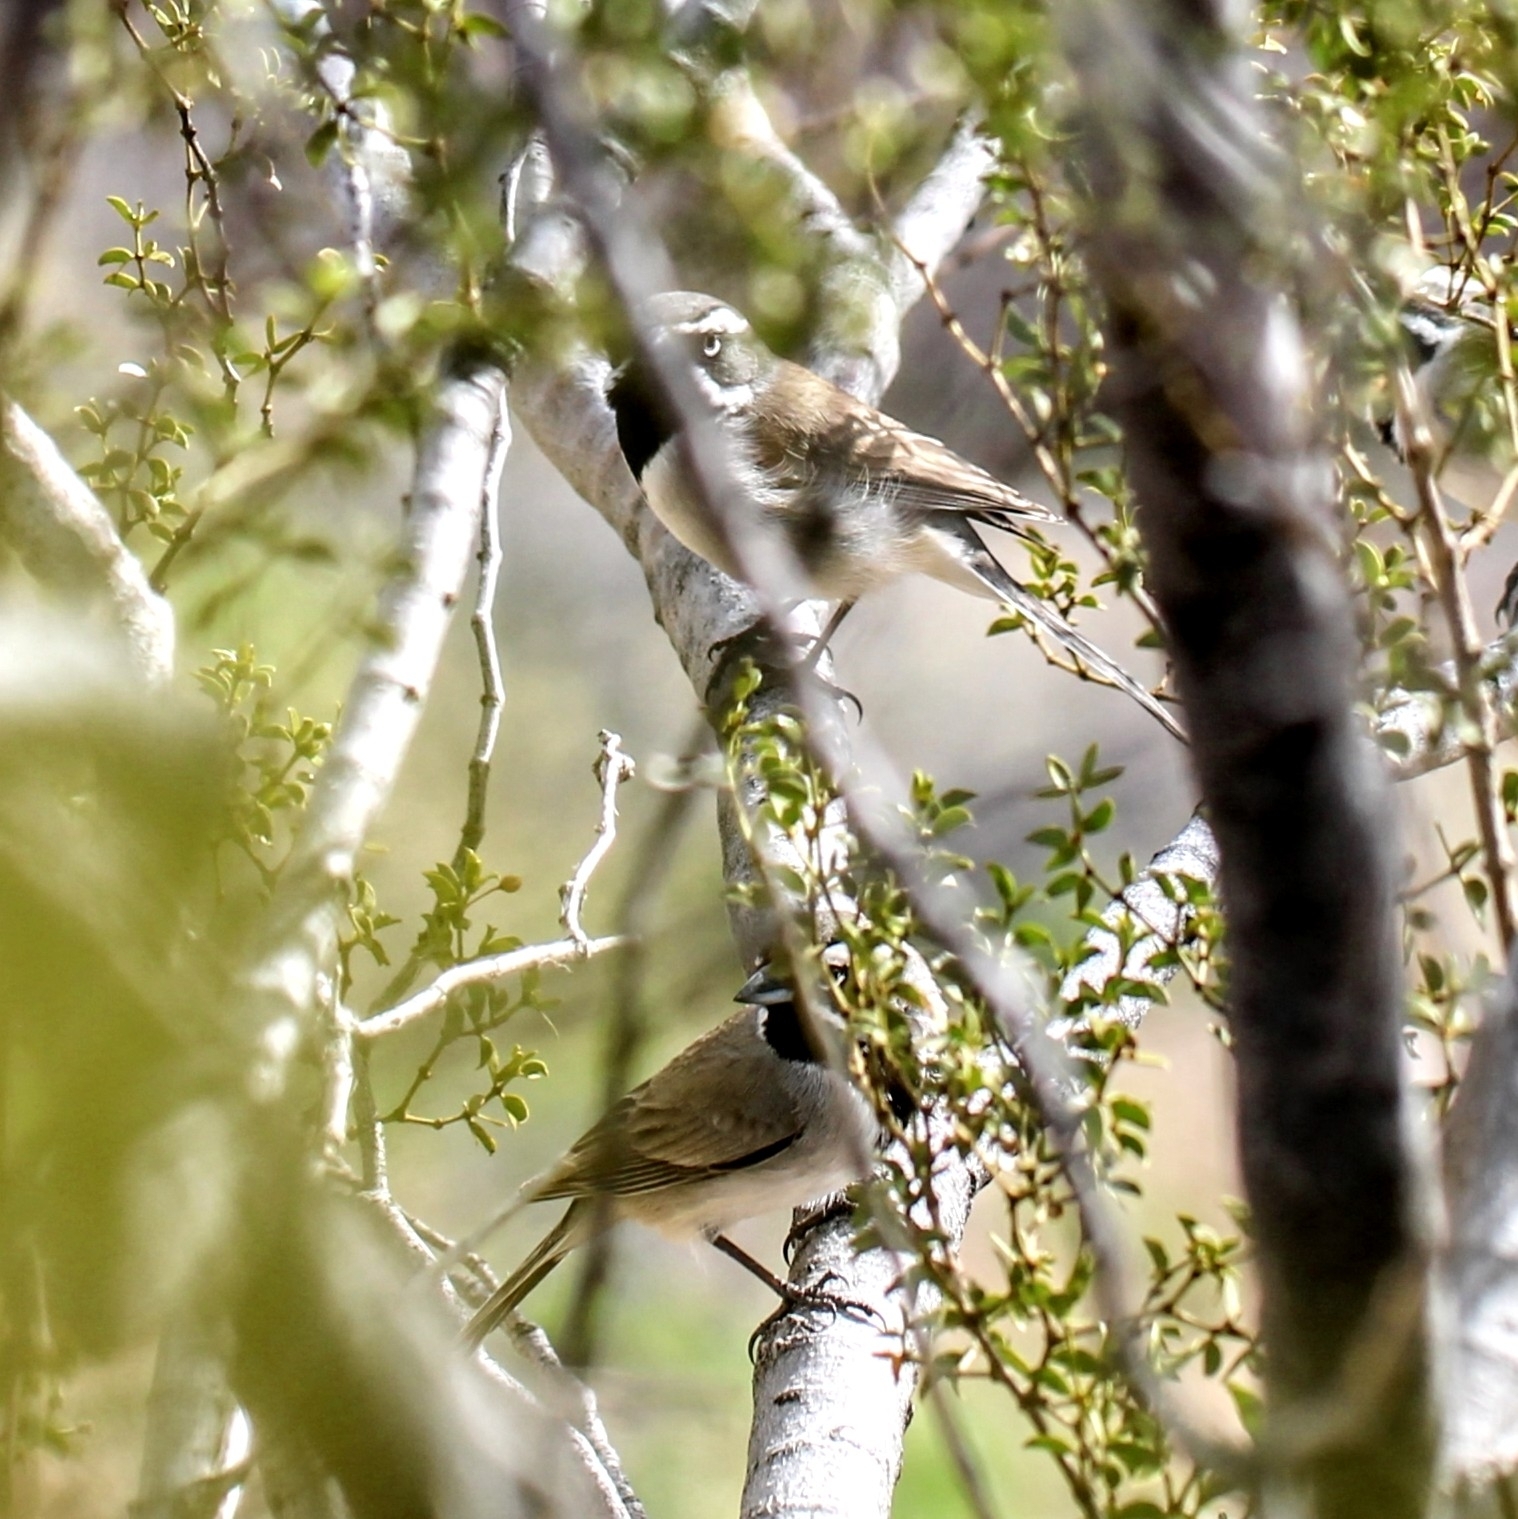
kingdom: Animalia
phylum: Chordata
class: Aves
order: Passeriformes
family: Passerellidae
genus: Amphispiza
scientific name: Amphispiza bilineata
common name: Black-throated sparrow
